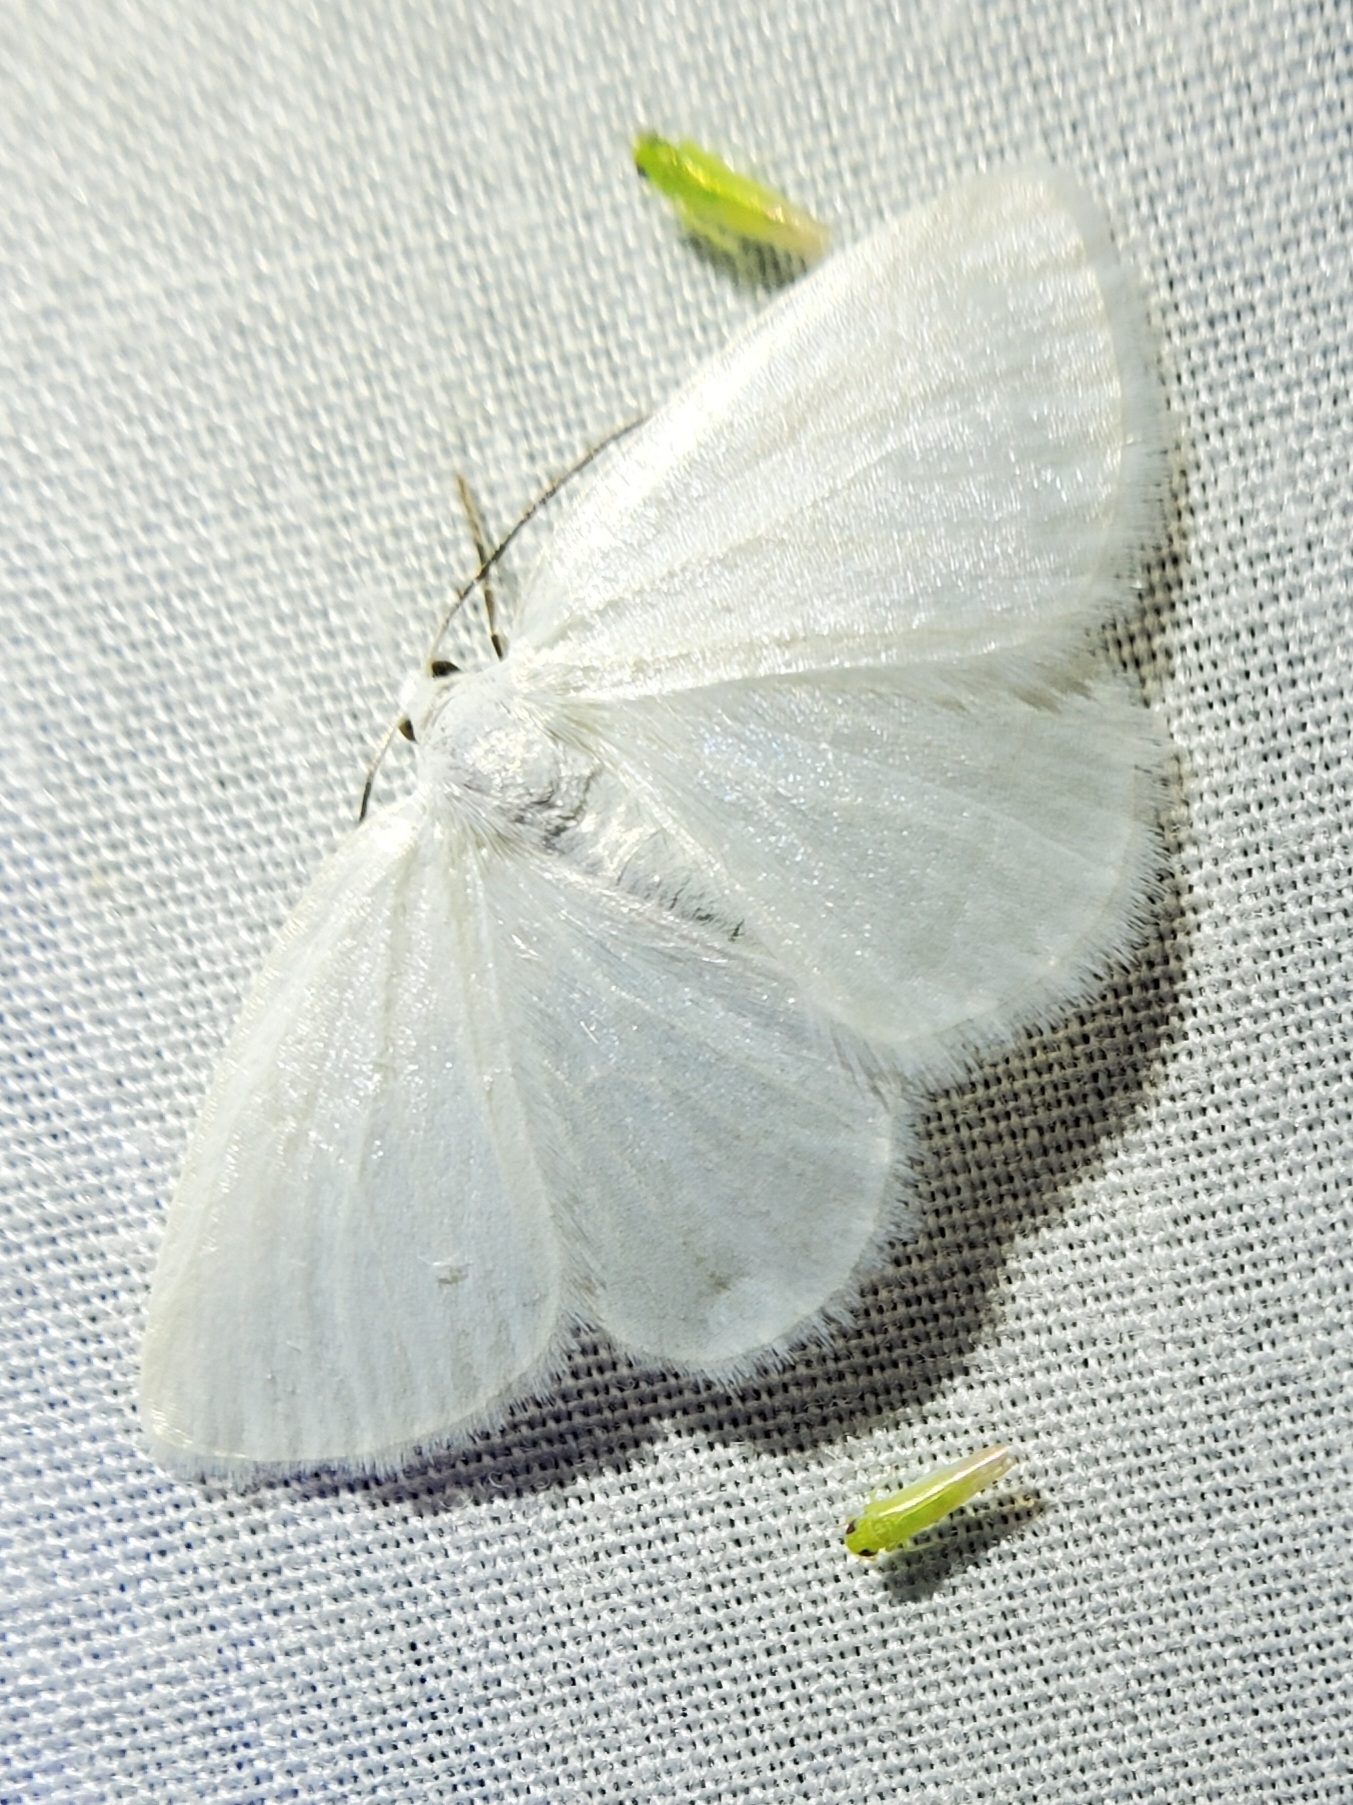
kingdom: Animalia
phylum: Arthropoda
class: Insecta
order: Lepidoptera
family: Geometridae
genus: Lomographa
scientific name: Lomographa vestaliata
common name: White spring moth
